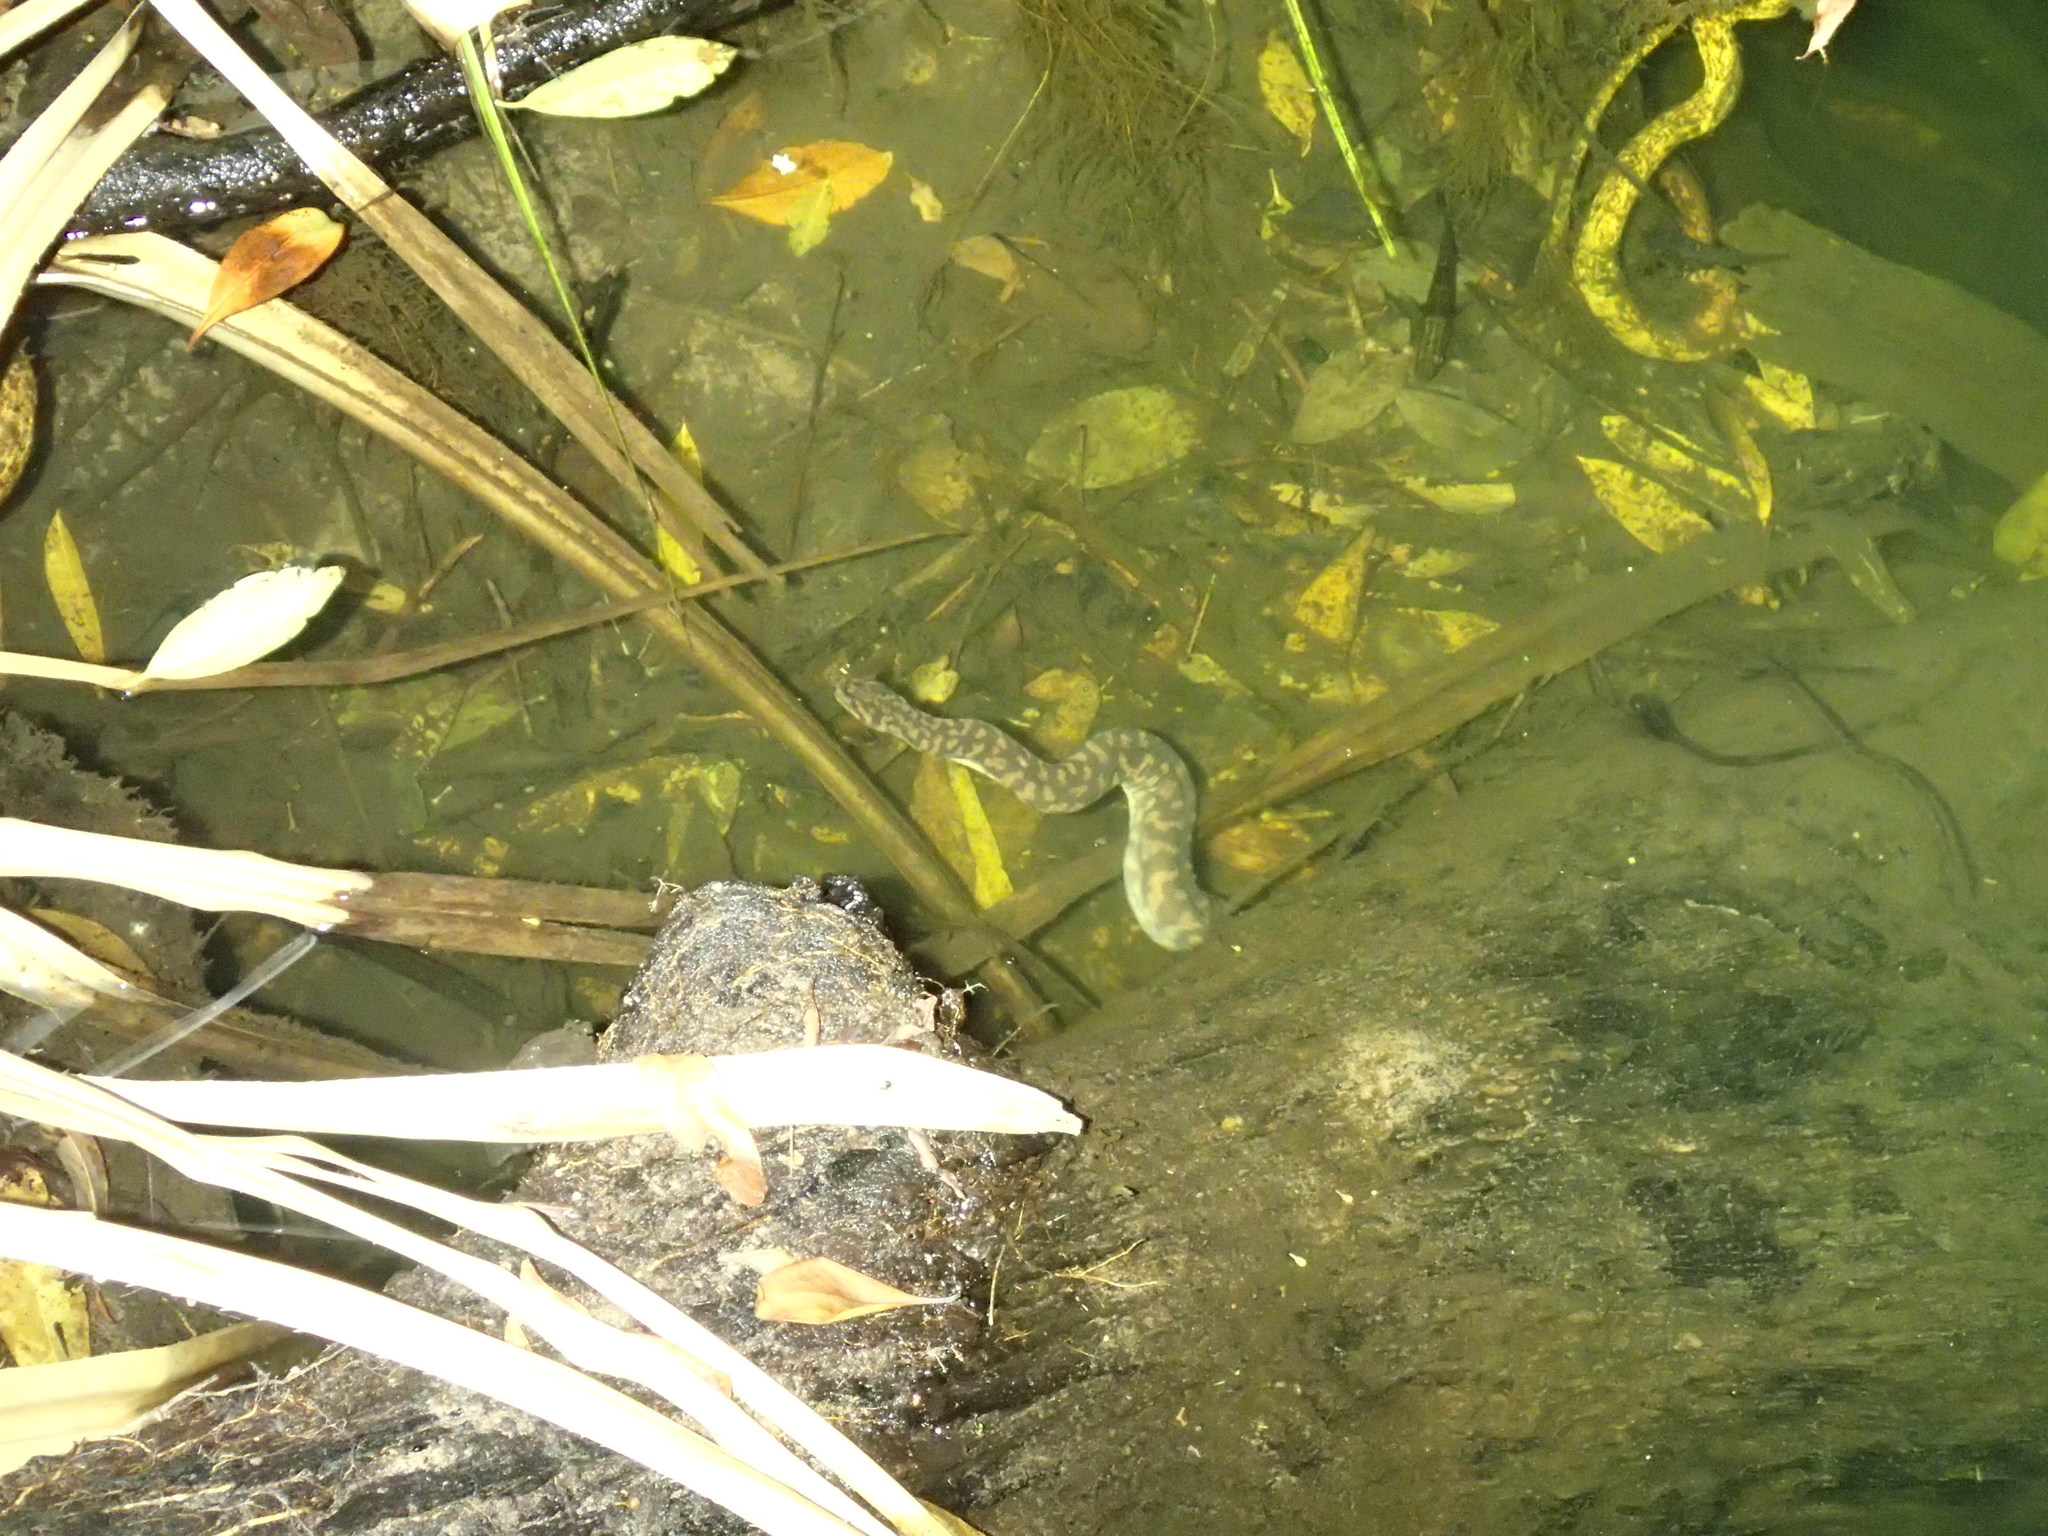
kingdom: Animalia
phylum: Chordata
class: Squamata
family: Acrochordidae
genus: Acrochordus
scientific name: Acrochordus arafurae
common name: Arafura file snake
